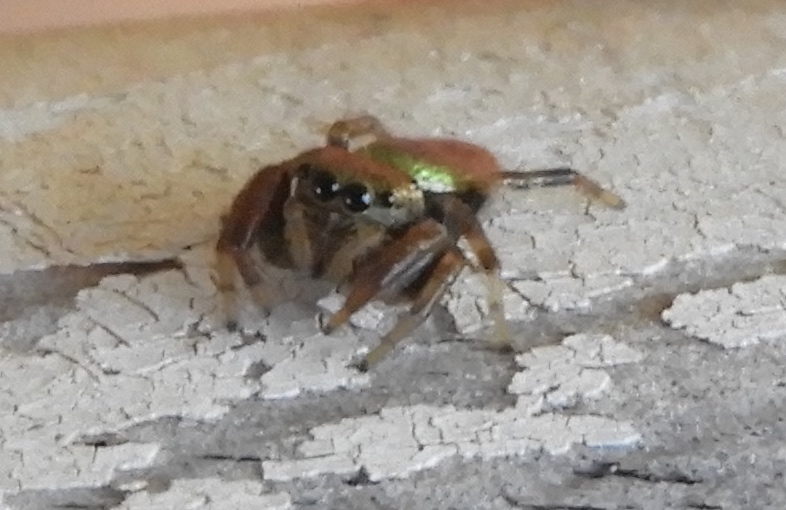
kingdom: Animalia
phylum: Arthropoda
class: Arachnida
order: Araneae
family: Salticidae
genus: Messua
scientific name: Messua
